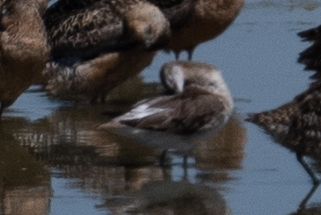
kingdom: Animalia
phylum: Chordata
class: Aves
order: Charadriiformes
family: Scolopacidae
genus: Phalaropus
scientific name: Phalaropus tricolor
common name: Wilson's phalarope
